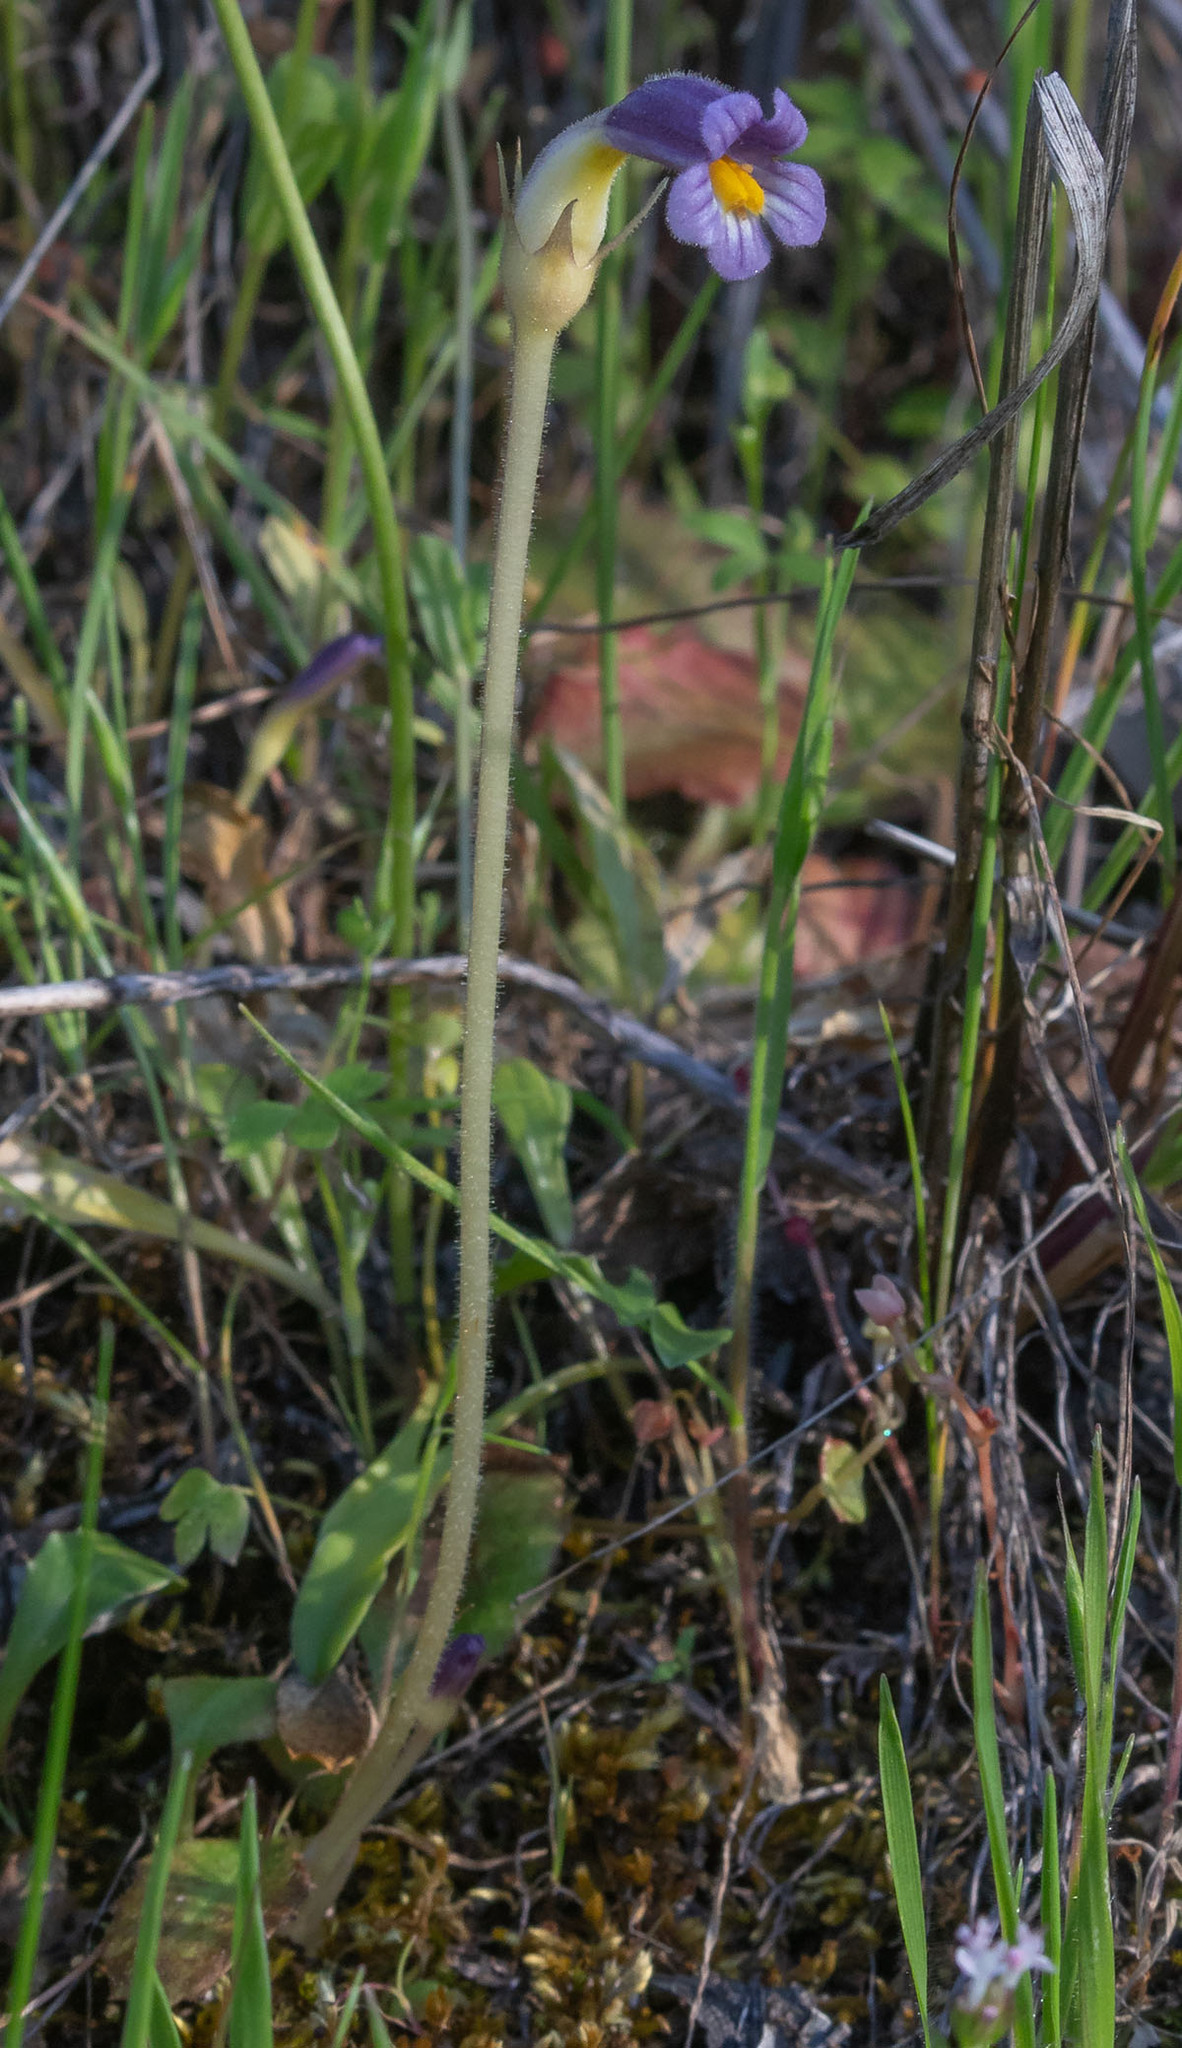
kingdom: Plantae
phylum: Tracheophyta
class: Magnoliopsida
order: Lamiales
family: Orobanchaceae
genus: Aphyllon
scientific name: Aphyllon uniflorum
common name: One-flowered broomrape
